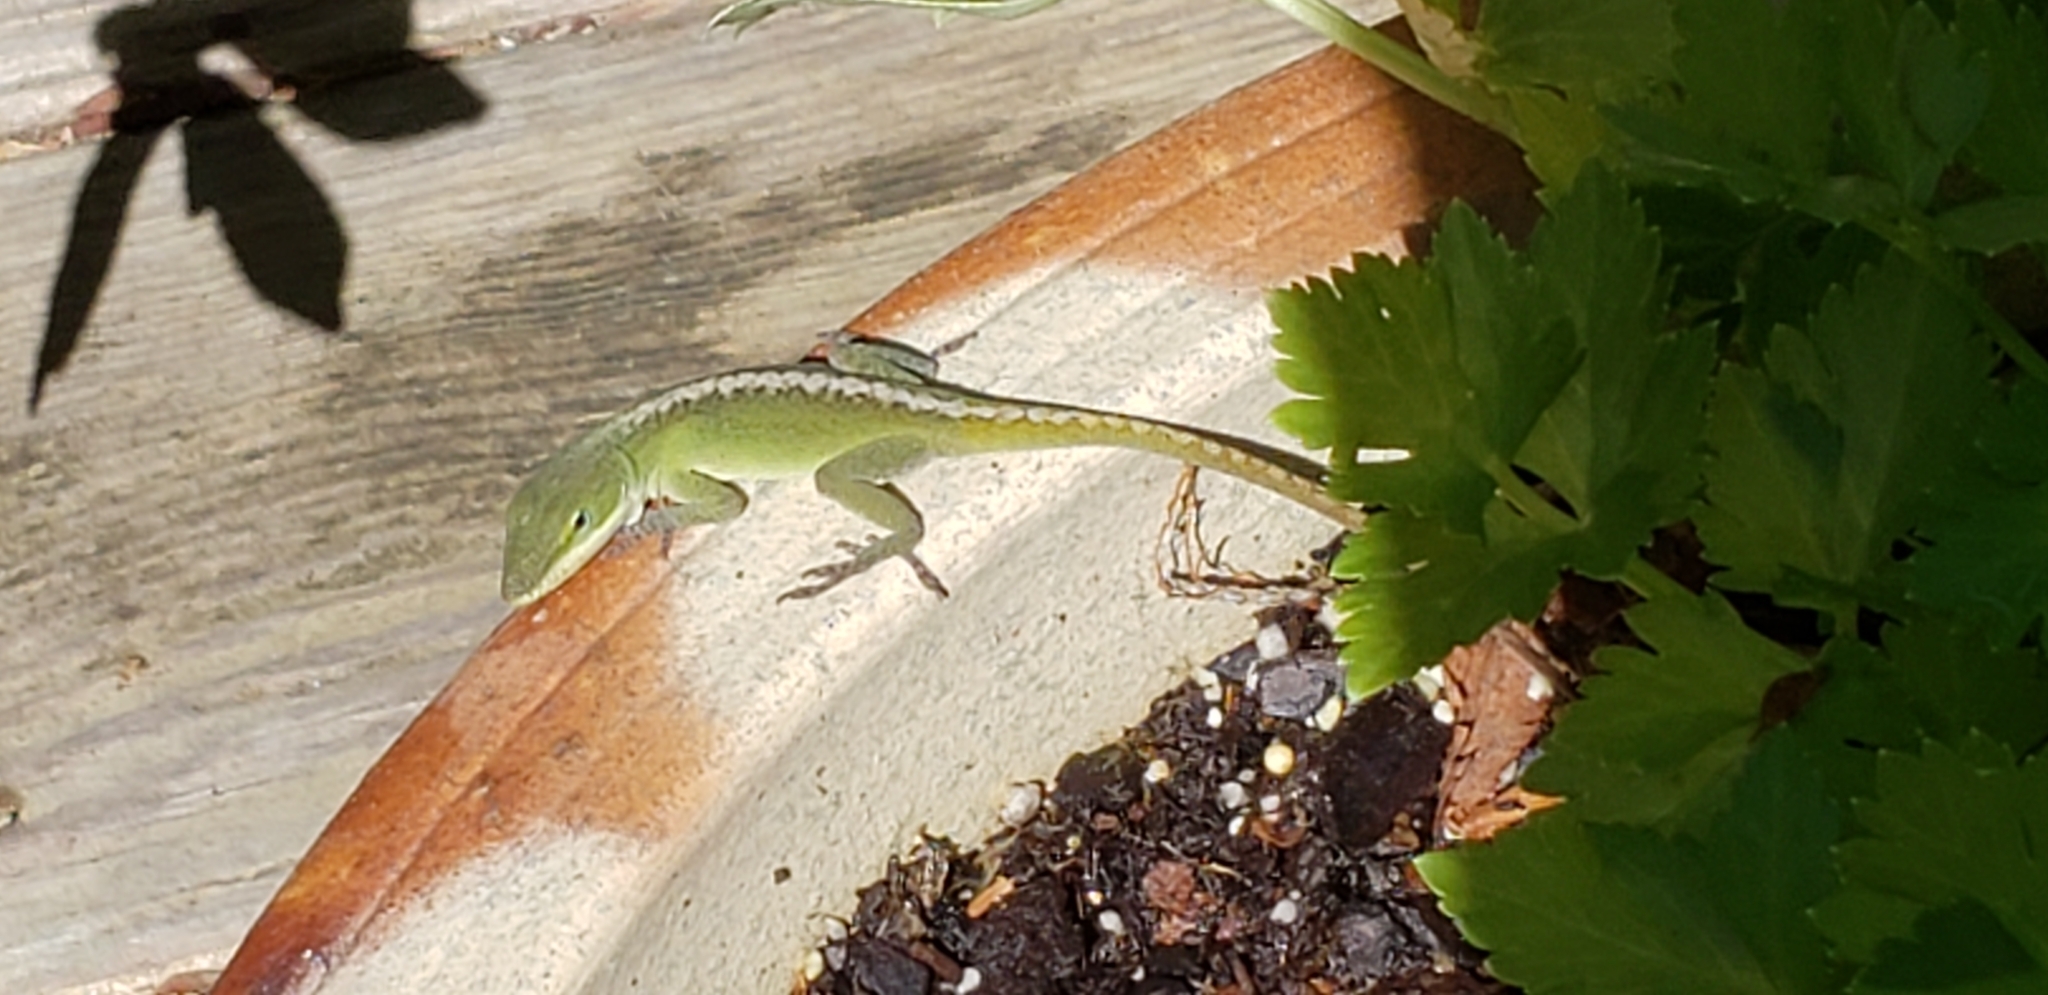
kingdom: Animalia
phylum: Chordata
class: Squamata
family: Dactyloidae
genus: Anolis
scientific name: Anolis carolinensis
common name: Green anole
